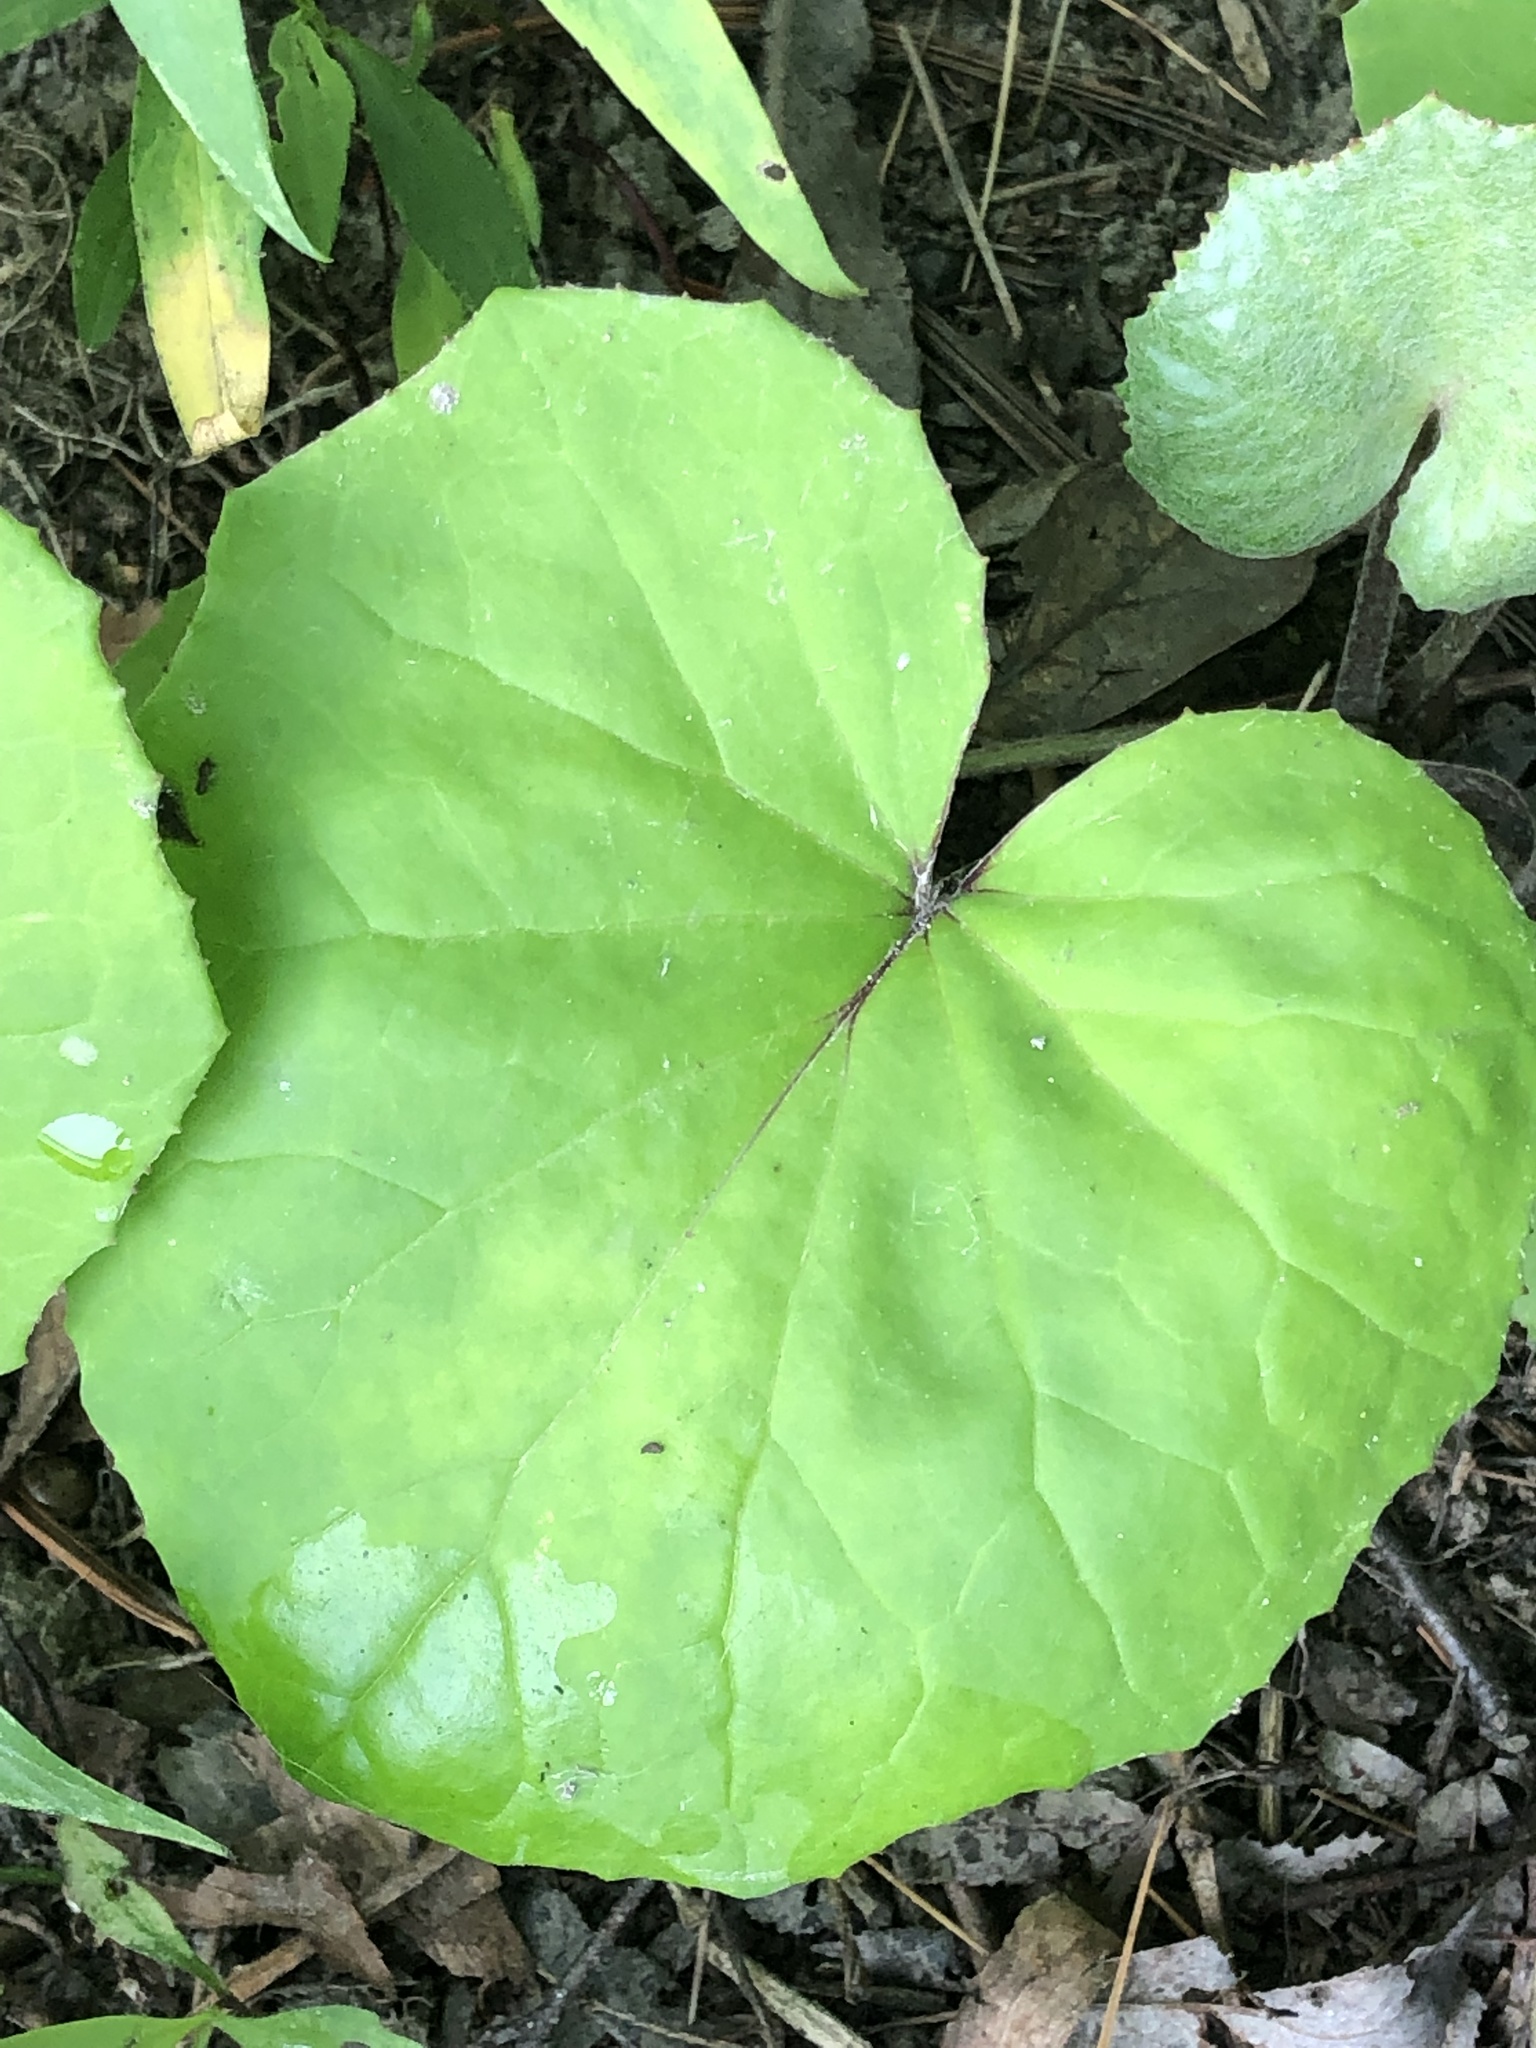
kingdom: Plantae
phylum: Tracheophyta
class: Magnoliopsida
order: Asterales
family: Asteraceae
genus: Tussilago
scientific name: Tussilago farfara
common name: Coltsfoot
